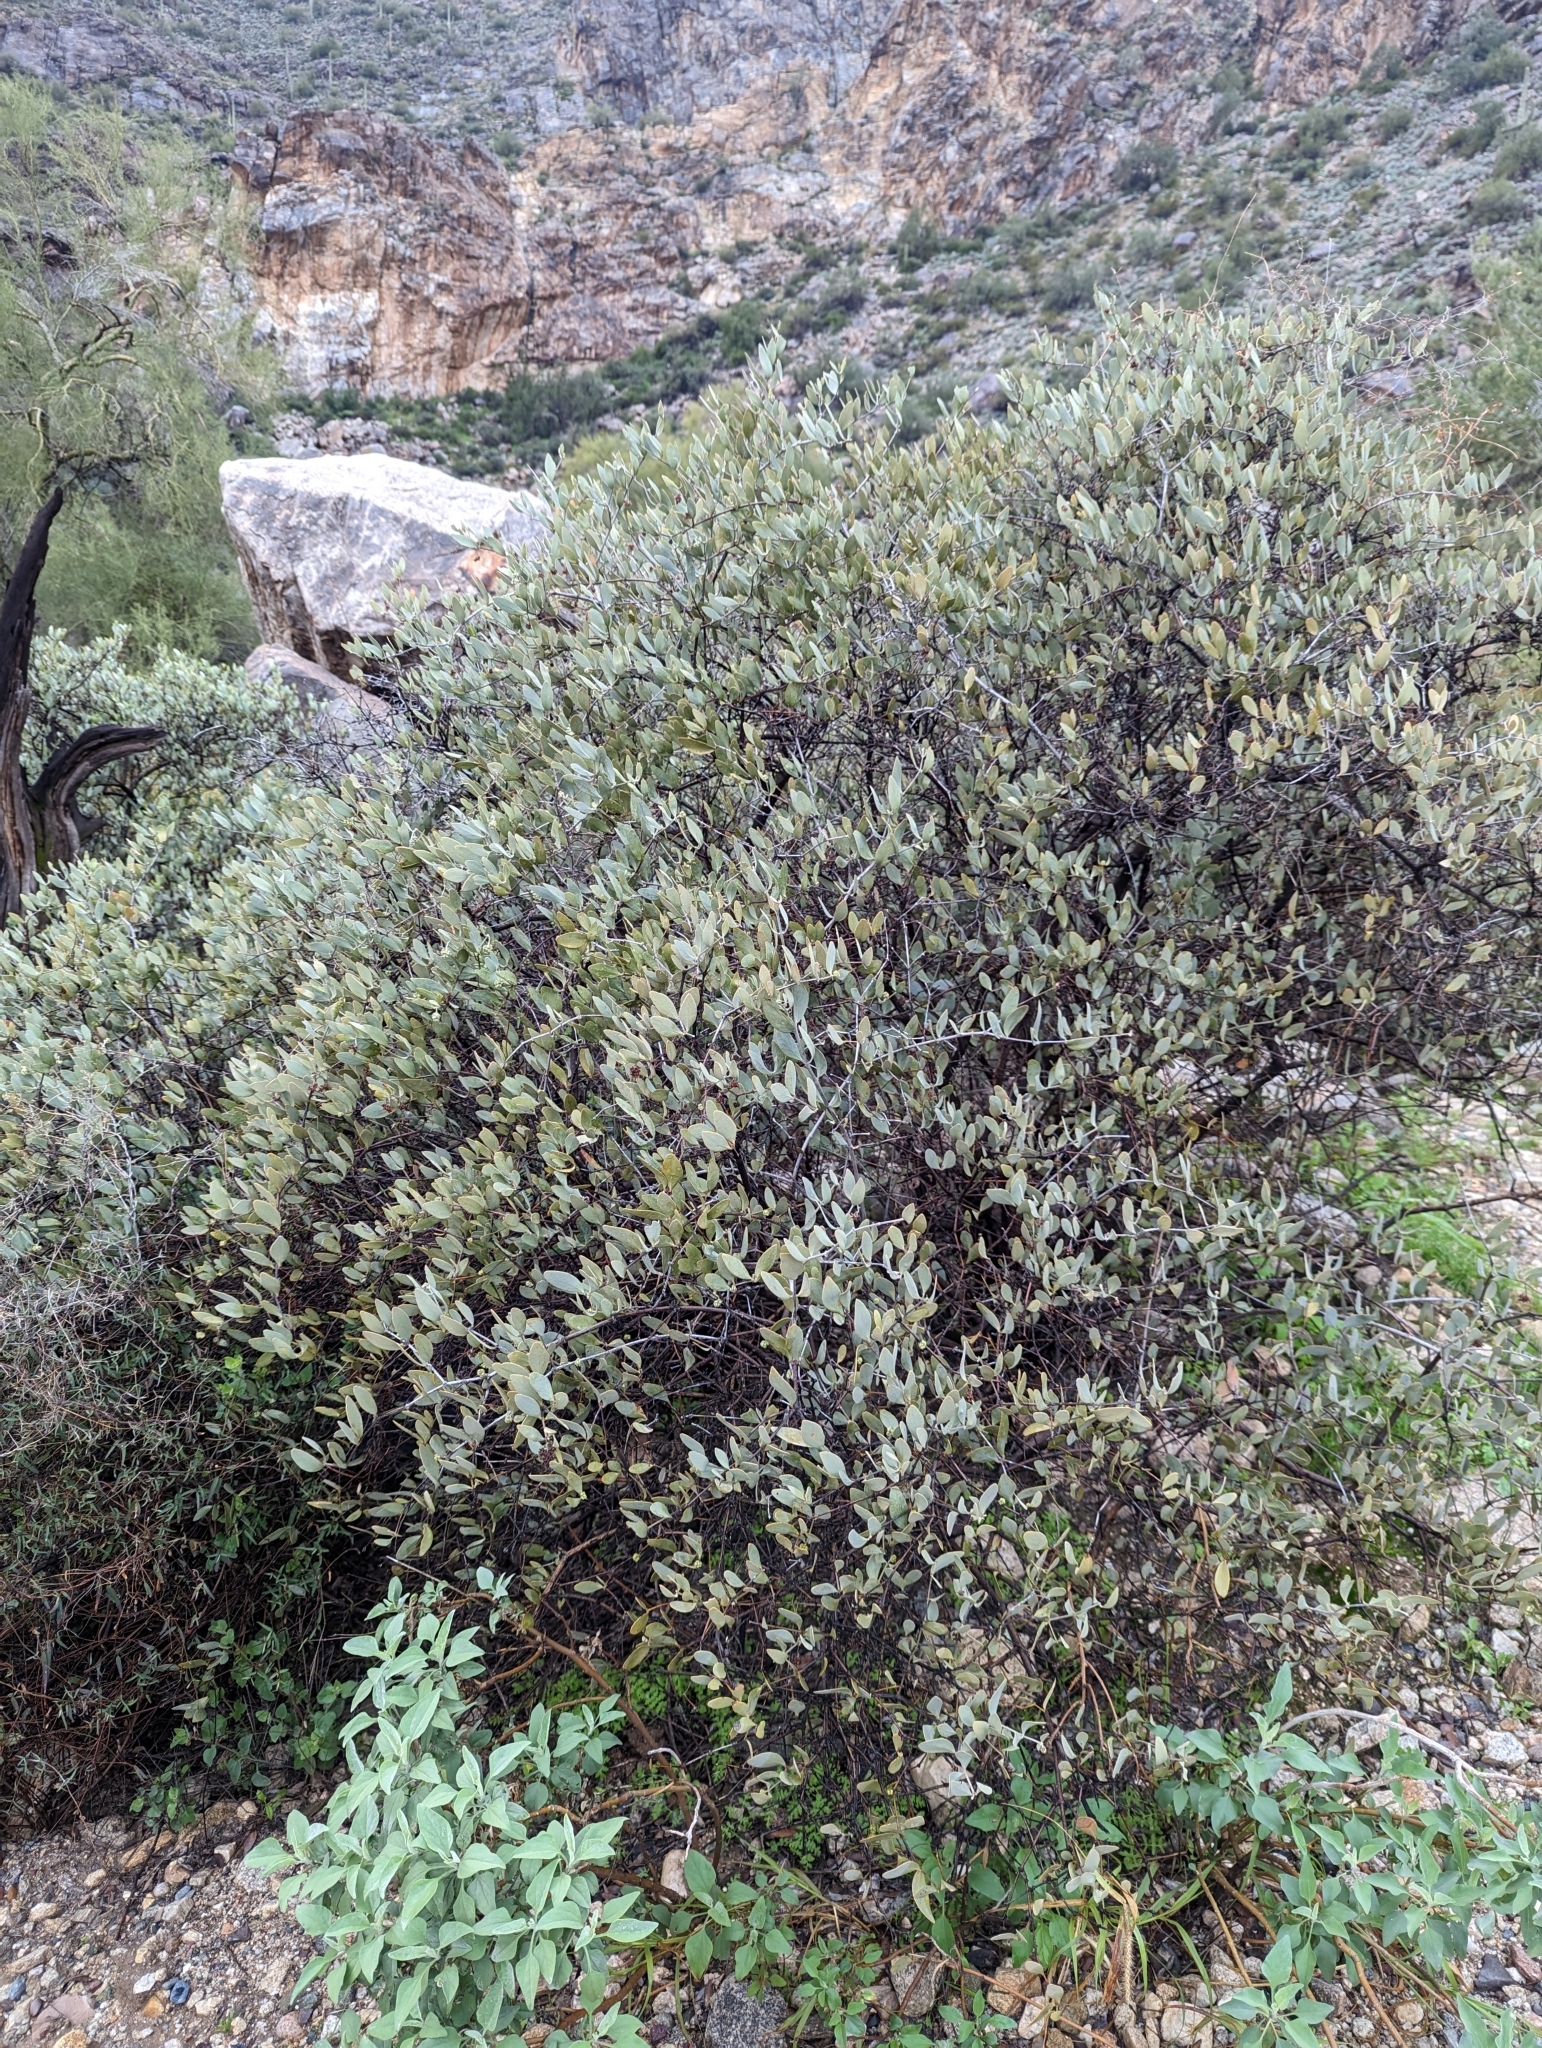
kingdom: Plantae
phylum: Tracheophyta
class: Magnoliopsida
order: Caryophyllales
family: Simmondsiaceae
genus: Simmondsia
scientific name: Simmondsia chinensis
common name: Jojoba
